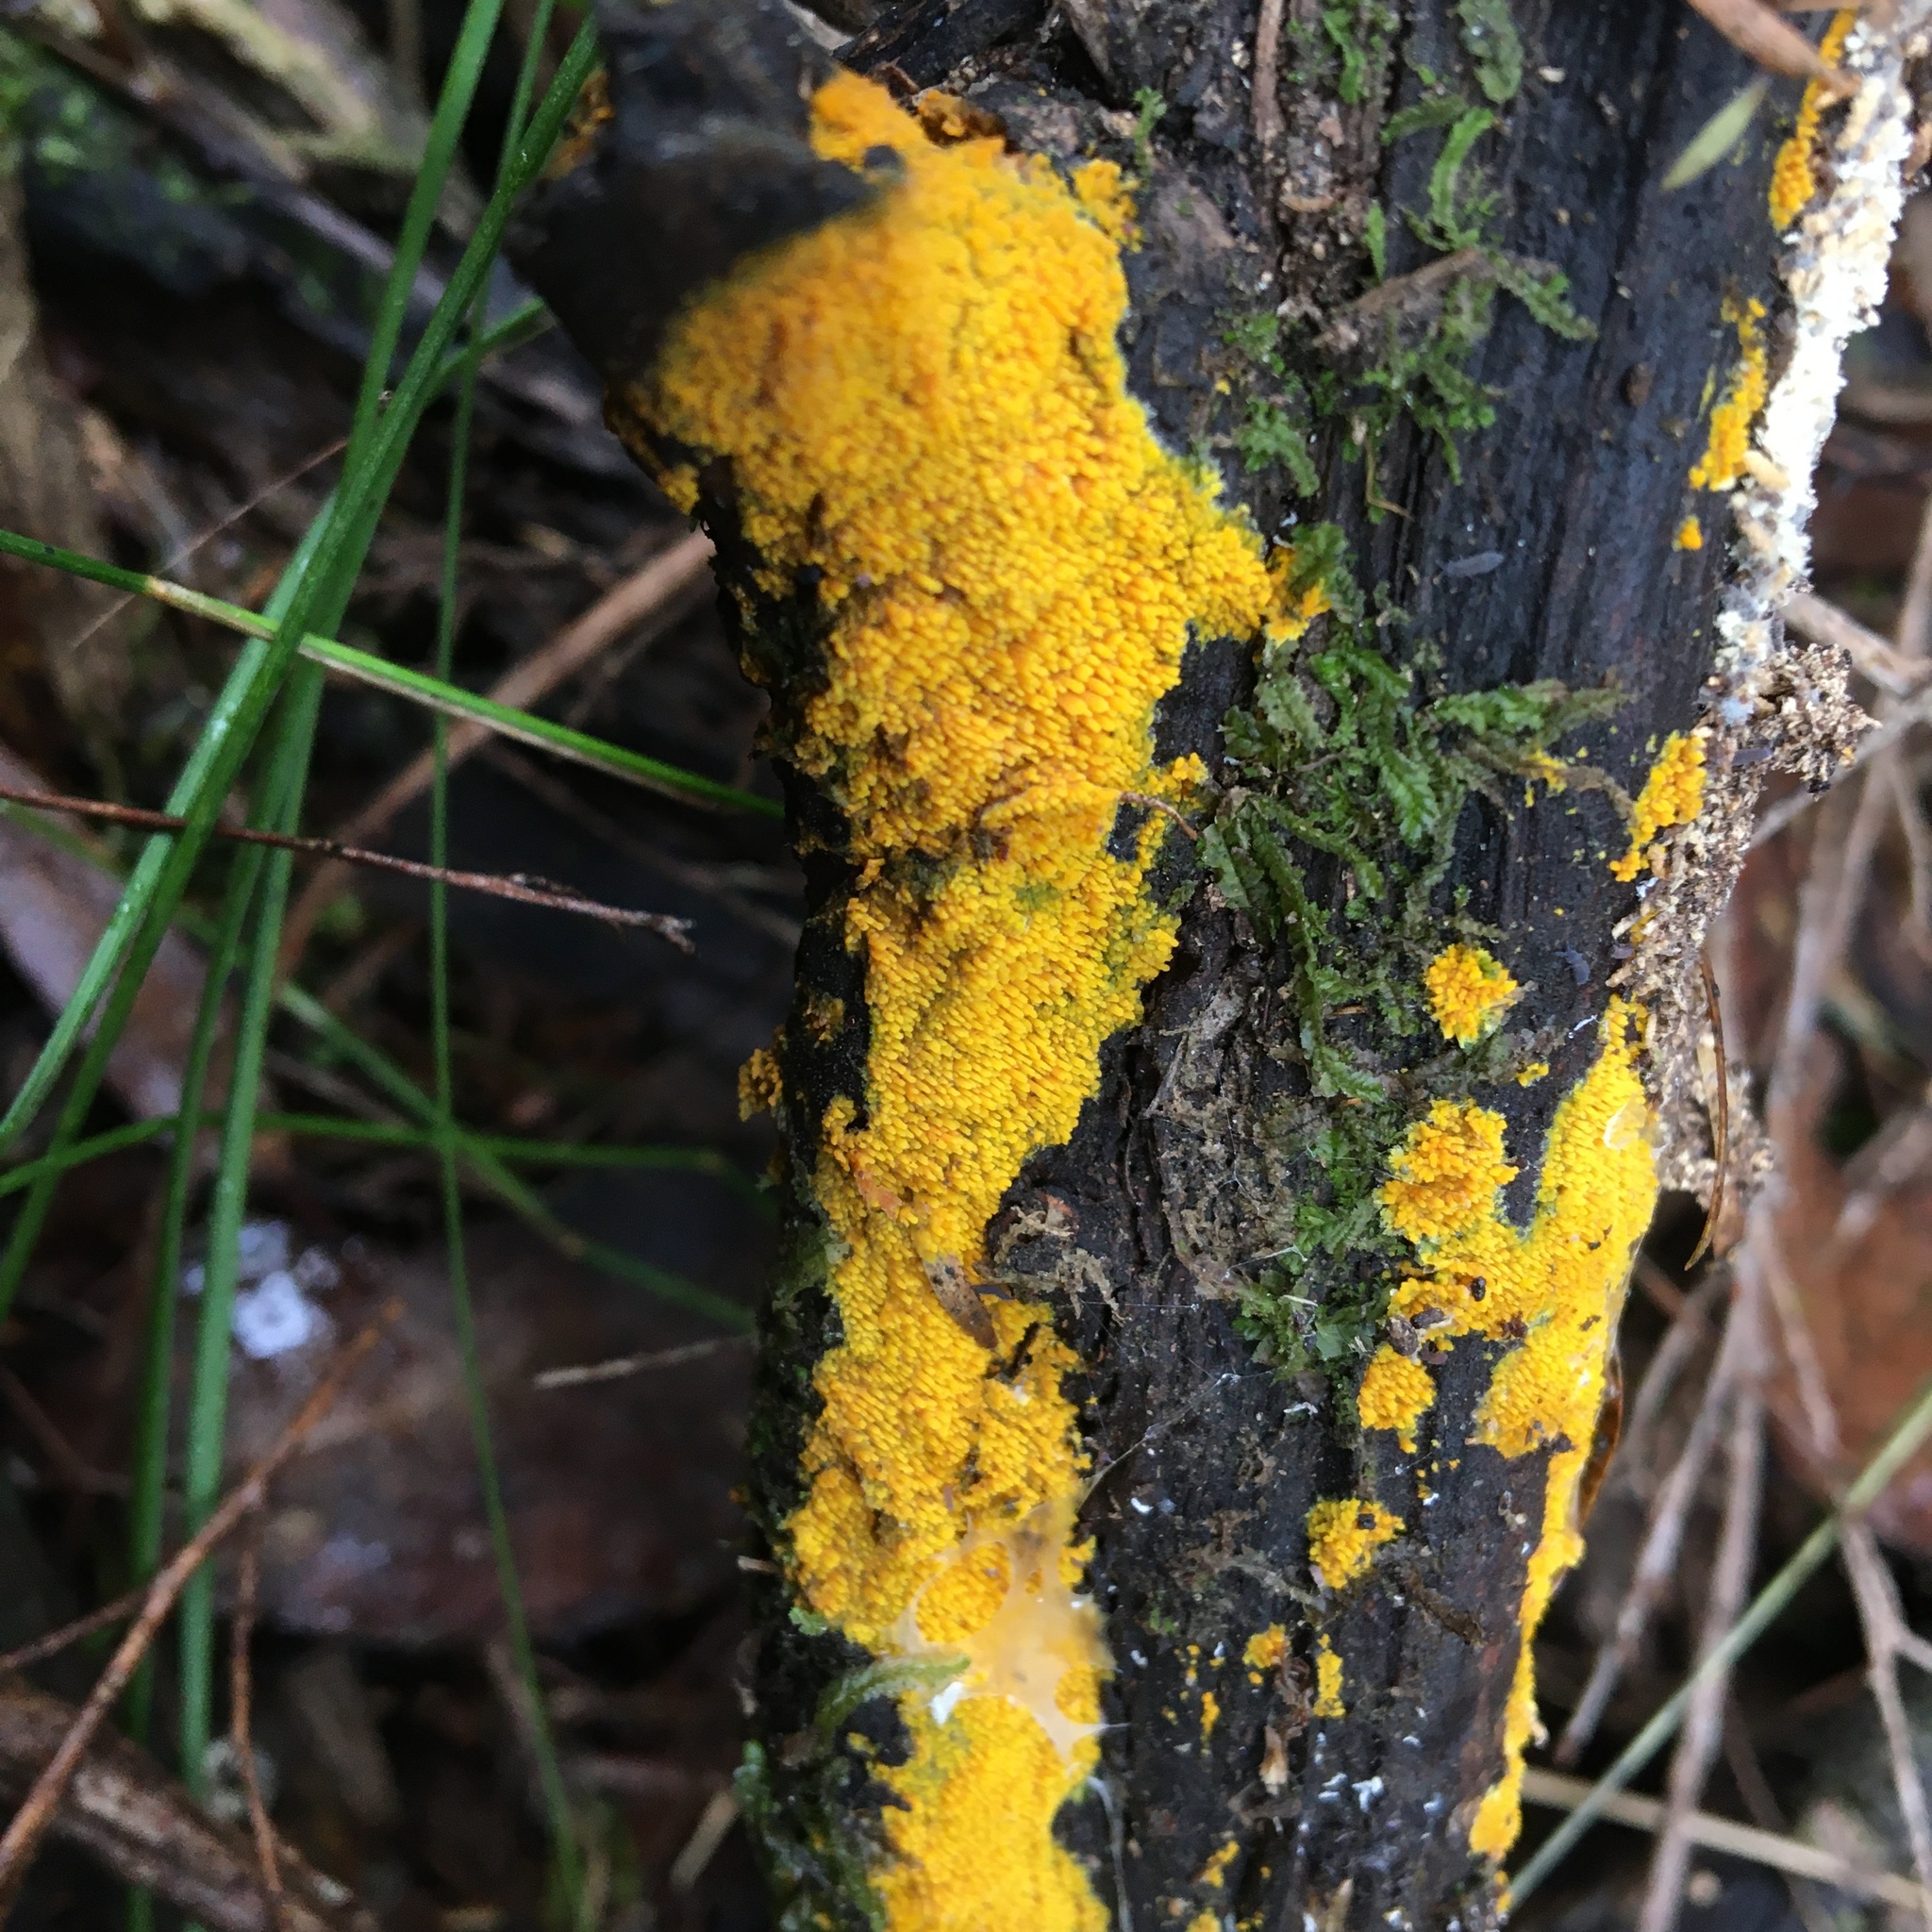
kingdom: Fungi
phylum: Basidiomycota
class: Agaricomycetes
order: Polyporales
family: Meruliaceae
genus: Phlebia
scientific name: Phlebia subceracea
